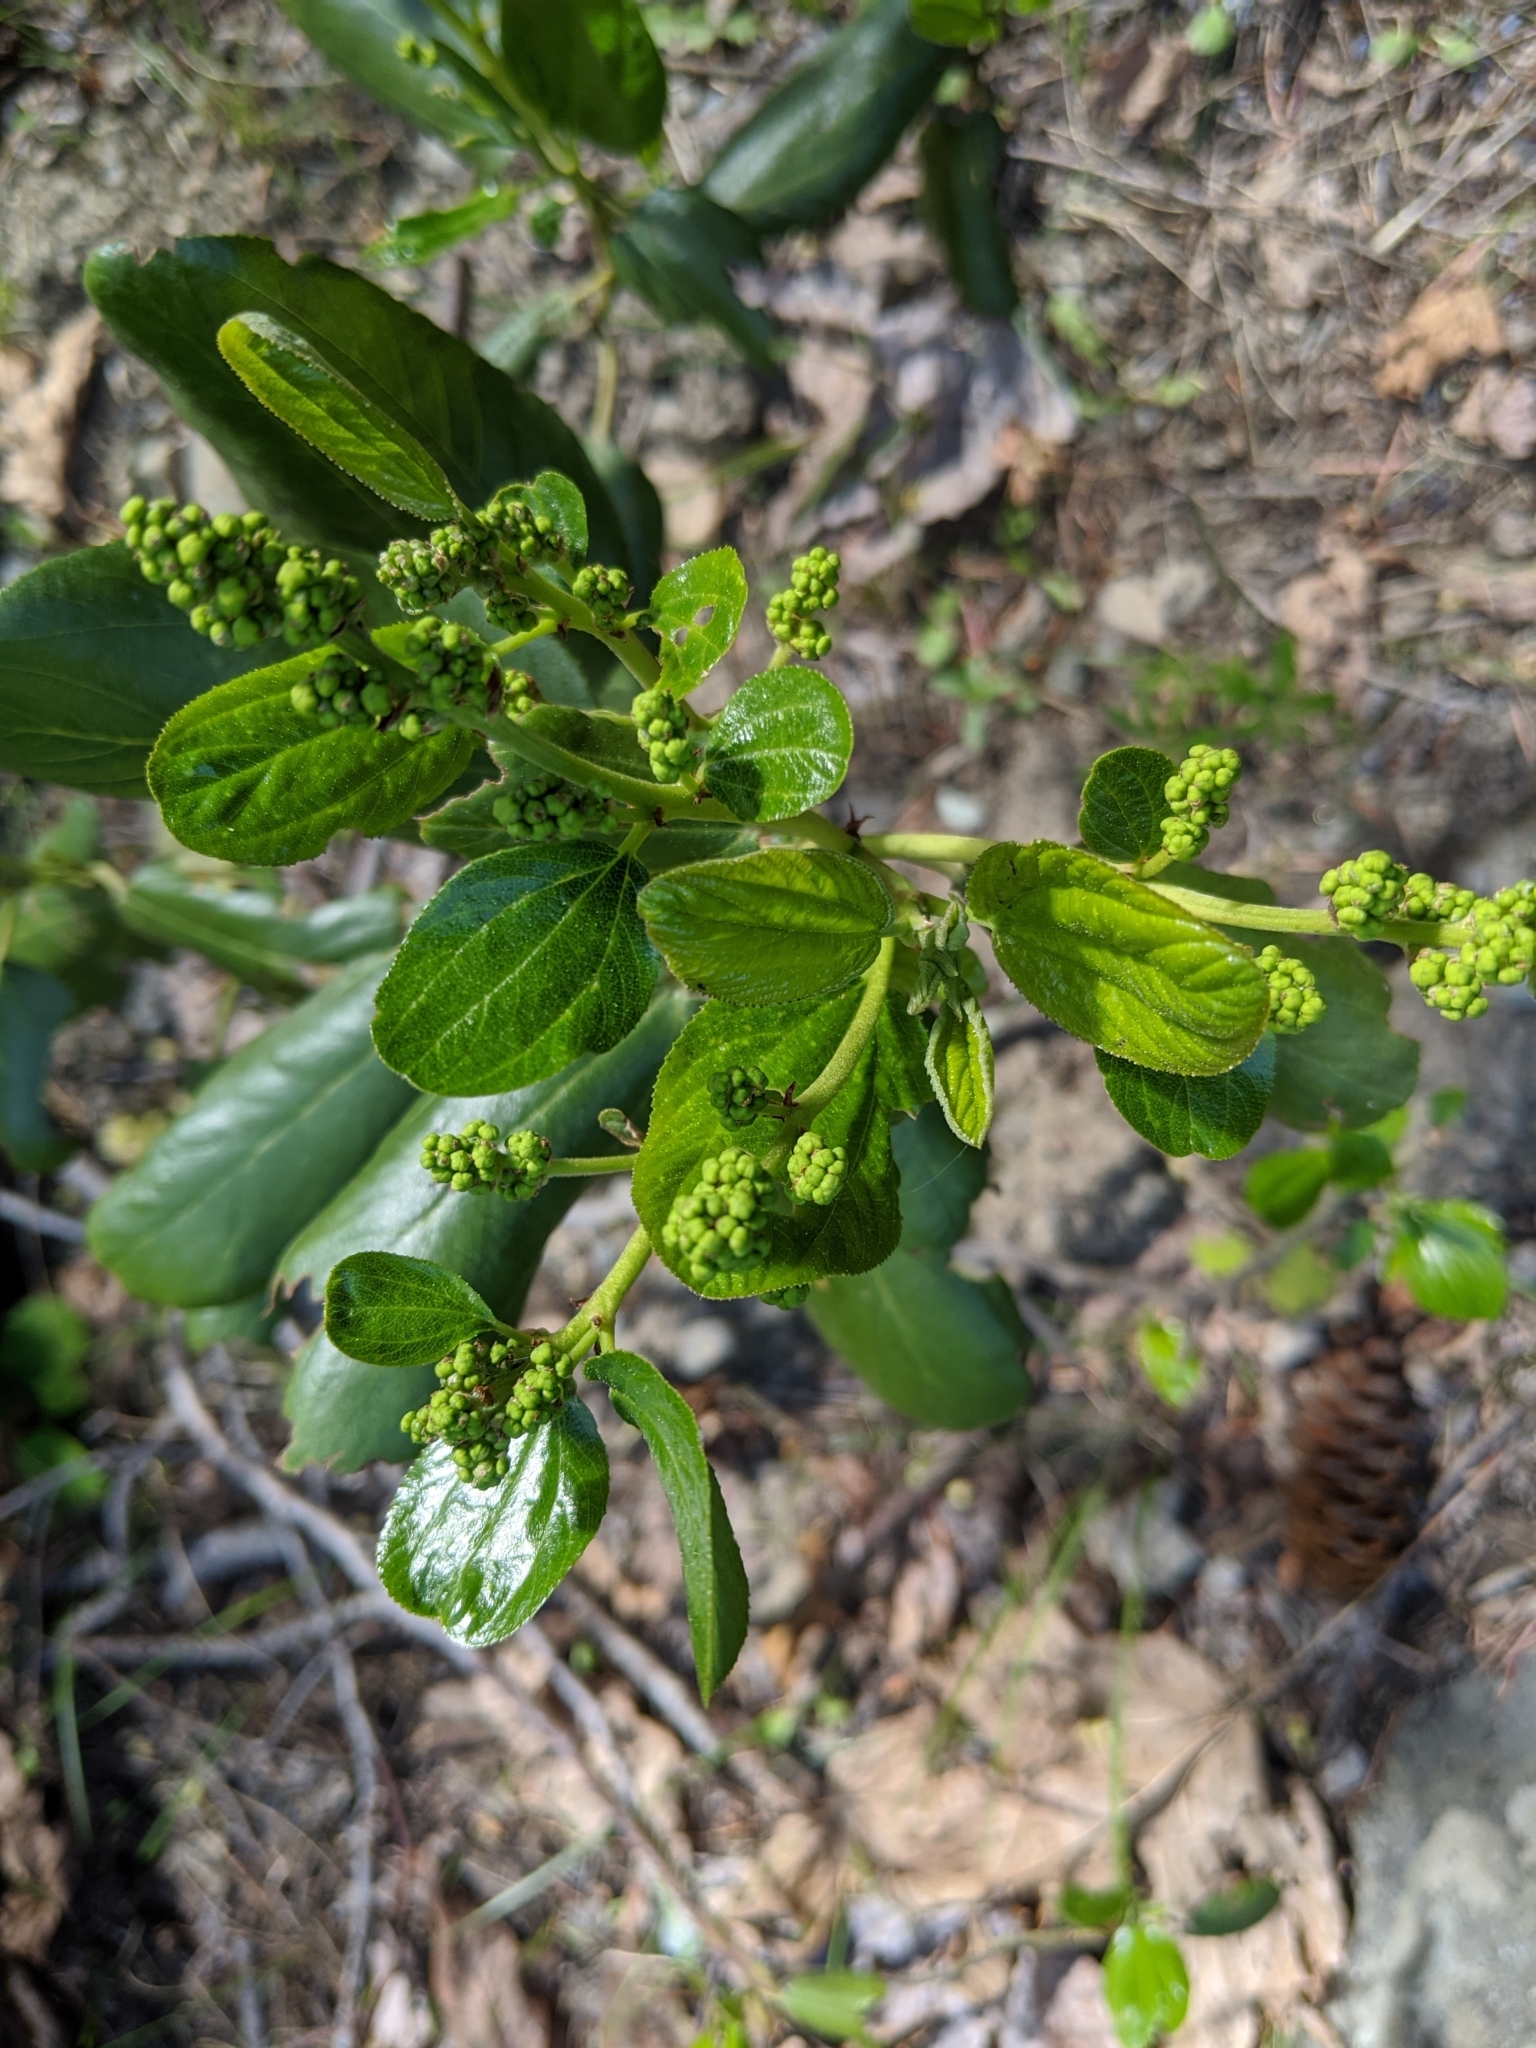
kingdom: Plantae
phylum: Tracheophyta
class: Magnoliopsida
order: Rosales
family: Rhamnaceae
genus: Ceanothus
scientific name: Ceanothus velutinus
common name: Snowbrush
